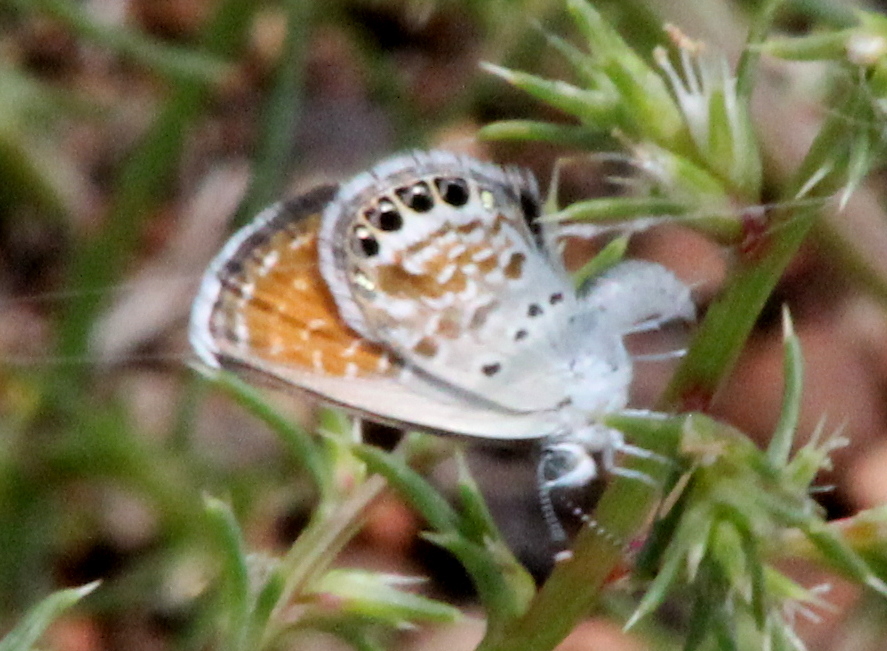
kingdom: Animalia
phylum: Arthropoda
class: Insecta
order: Lepidoptera
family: Lycaenidae
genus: Brephidium
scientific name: Brephidium exilis
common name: Pygmy blue
